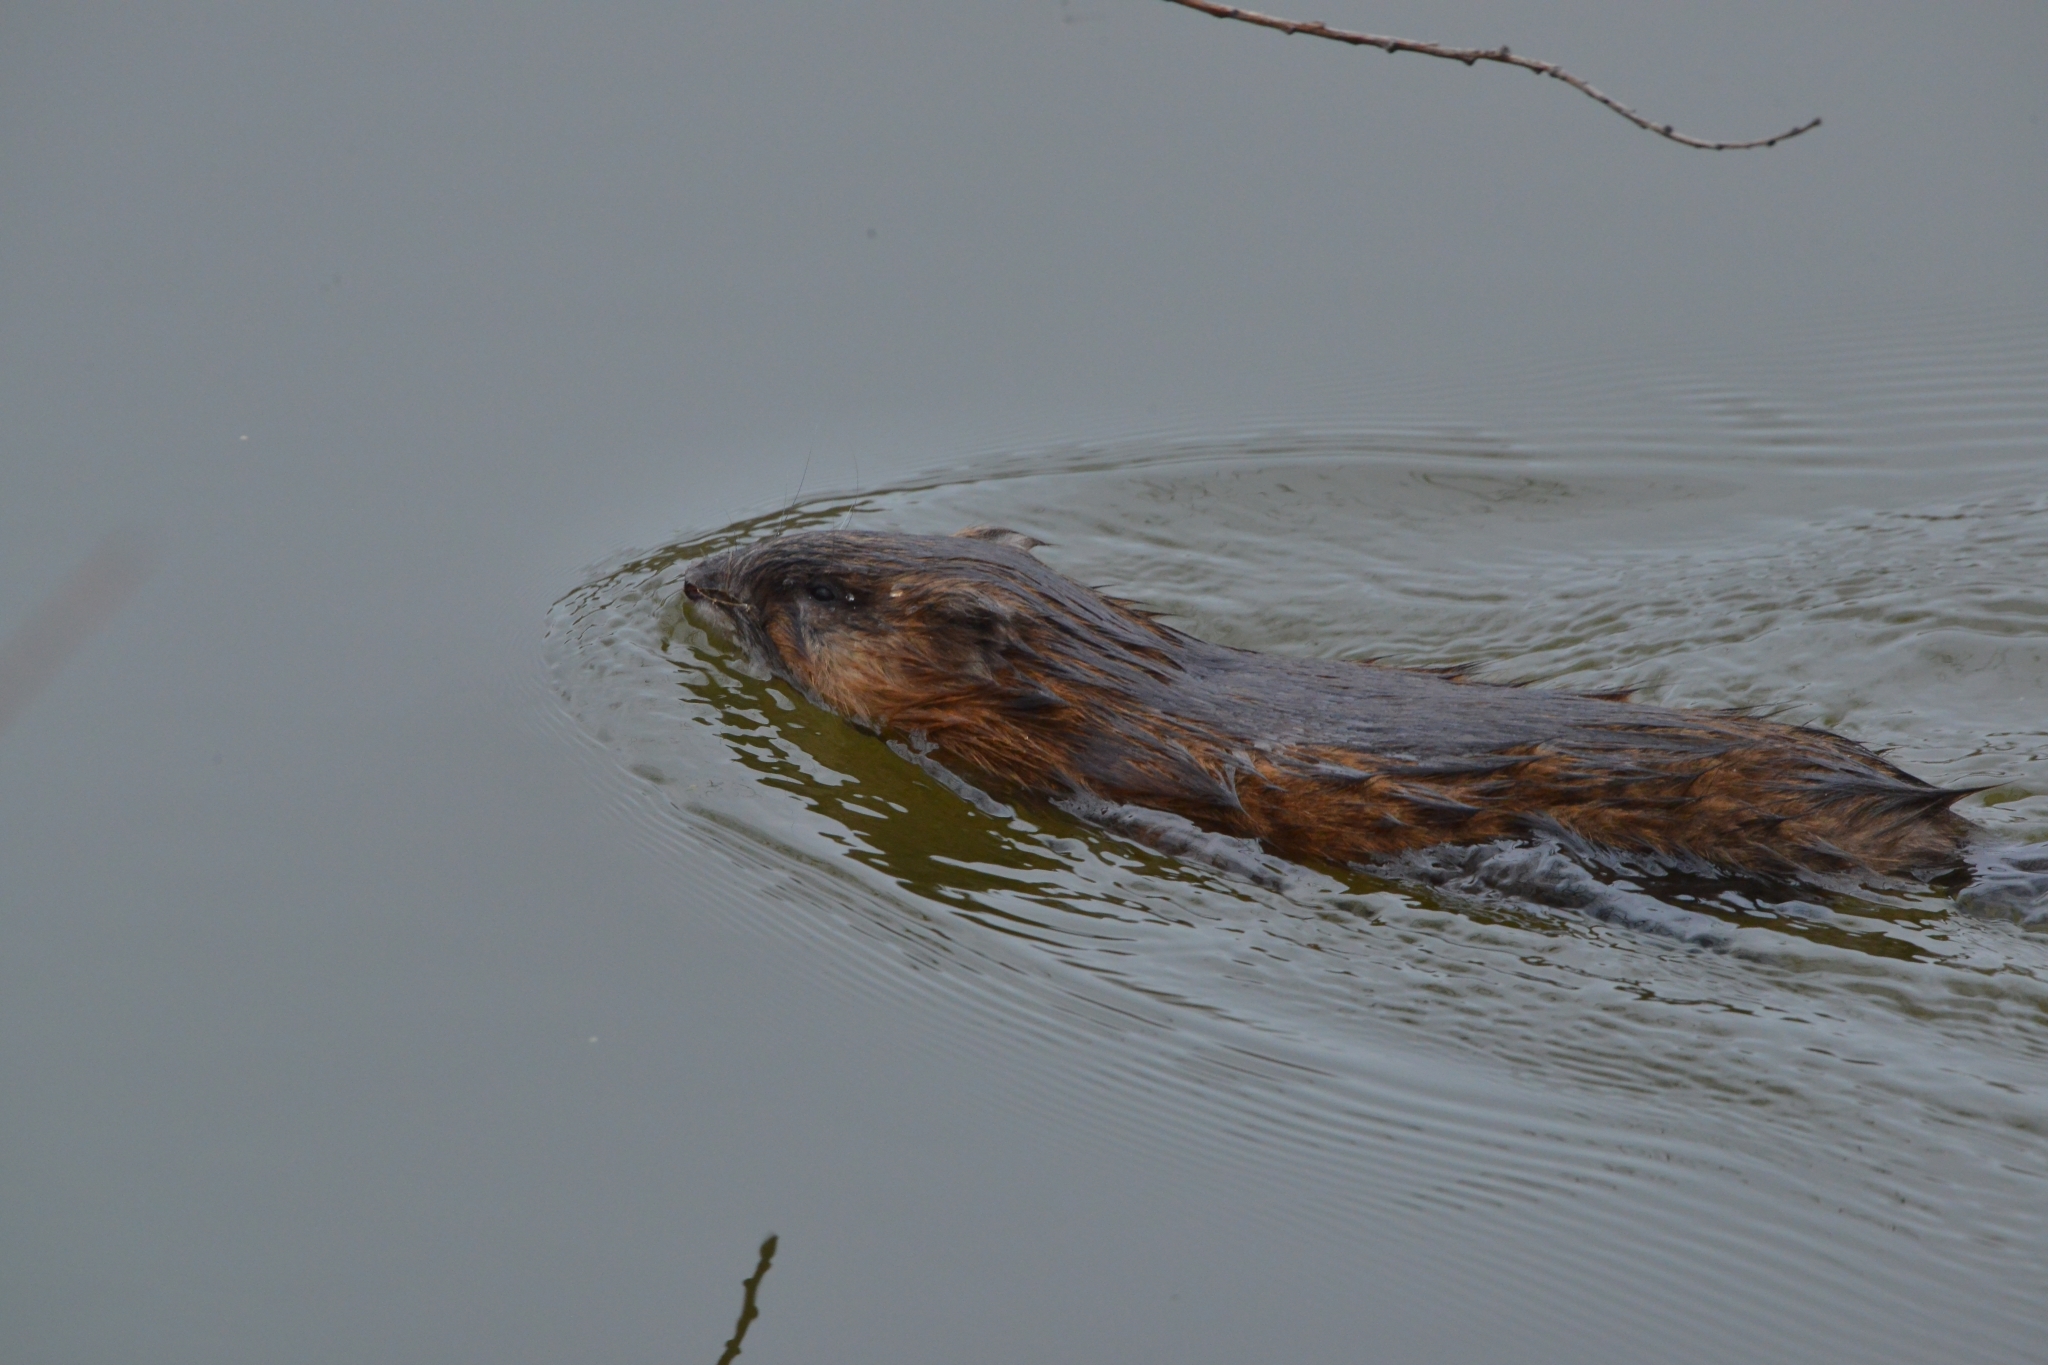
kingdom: Animalia
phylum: Chordata
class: Mammalia
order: Rodentia
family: Cricetidae
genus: Ondatra
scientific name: Ondatra zibethicus
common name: Muskrat
